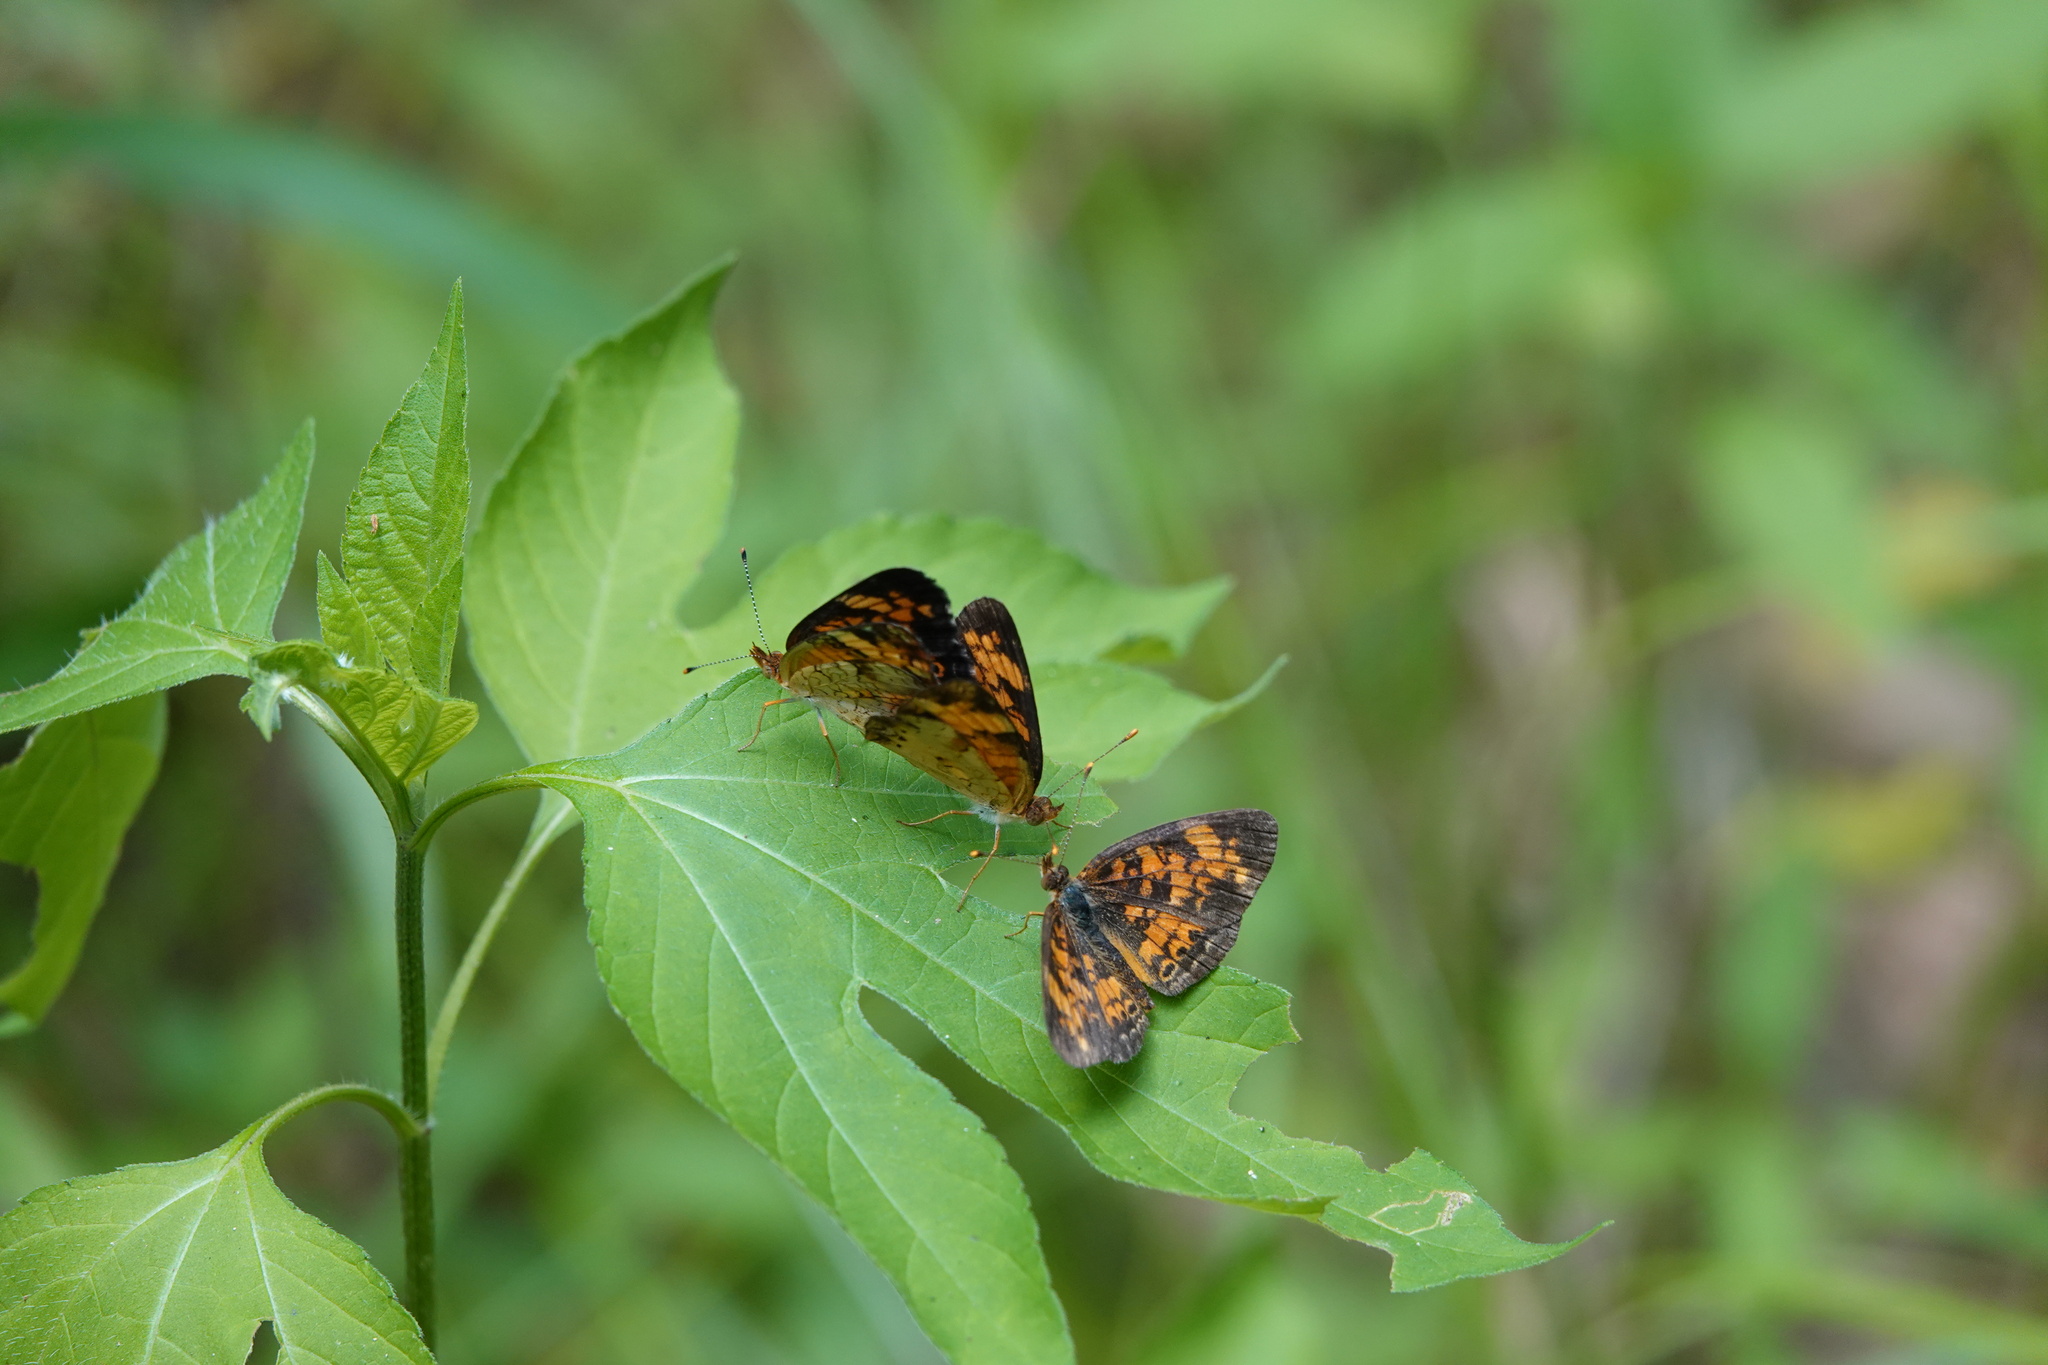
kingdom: Animalia
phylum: Arthropoda
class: Insecta
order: Lepidoptera
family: Nymphalidae
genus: Phyciodes
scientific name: Phyciodes tharos
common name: Pearl crescent
